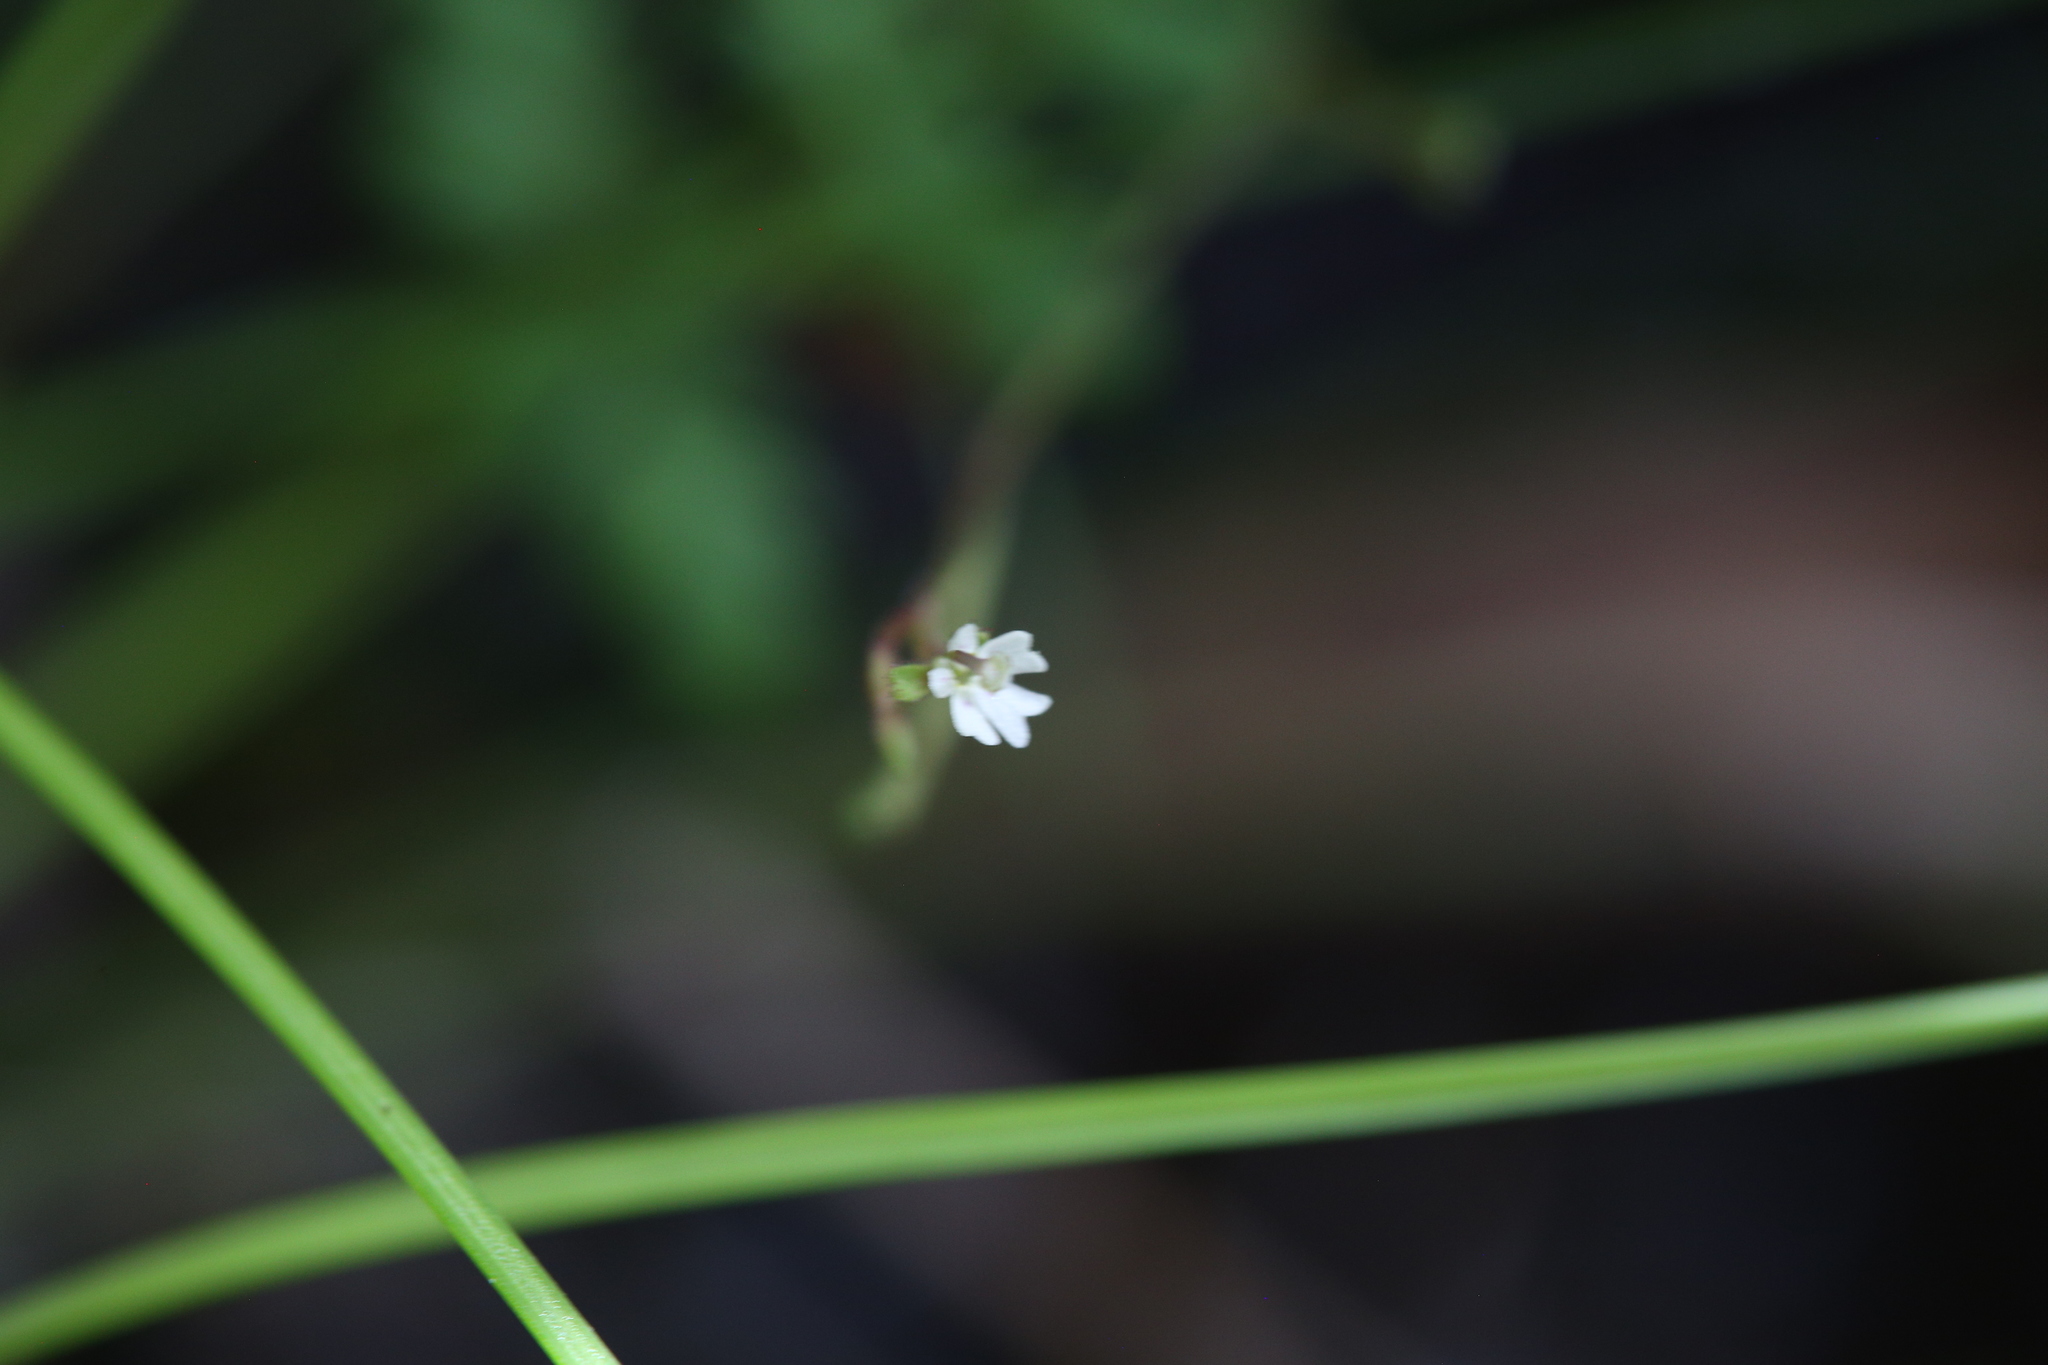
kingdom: Plantae
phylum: Tracheophyta
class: Magnoliopsida
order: Asterales
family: Stylidiaceae
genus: Stylidium
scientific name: Stylidium tenerum
